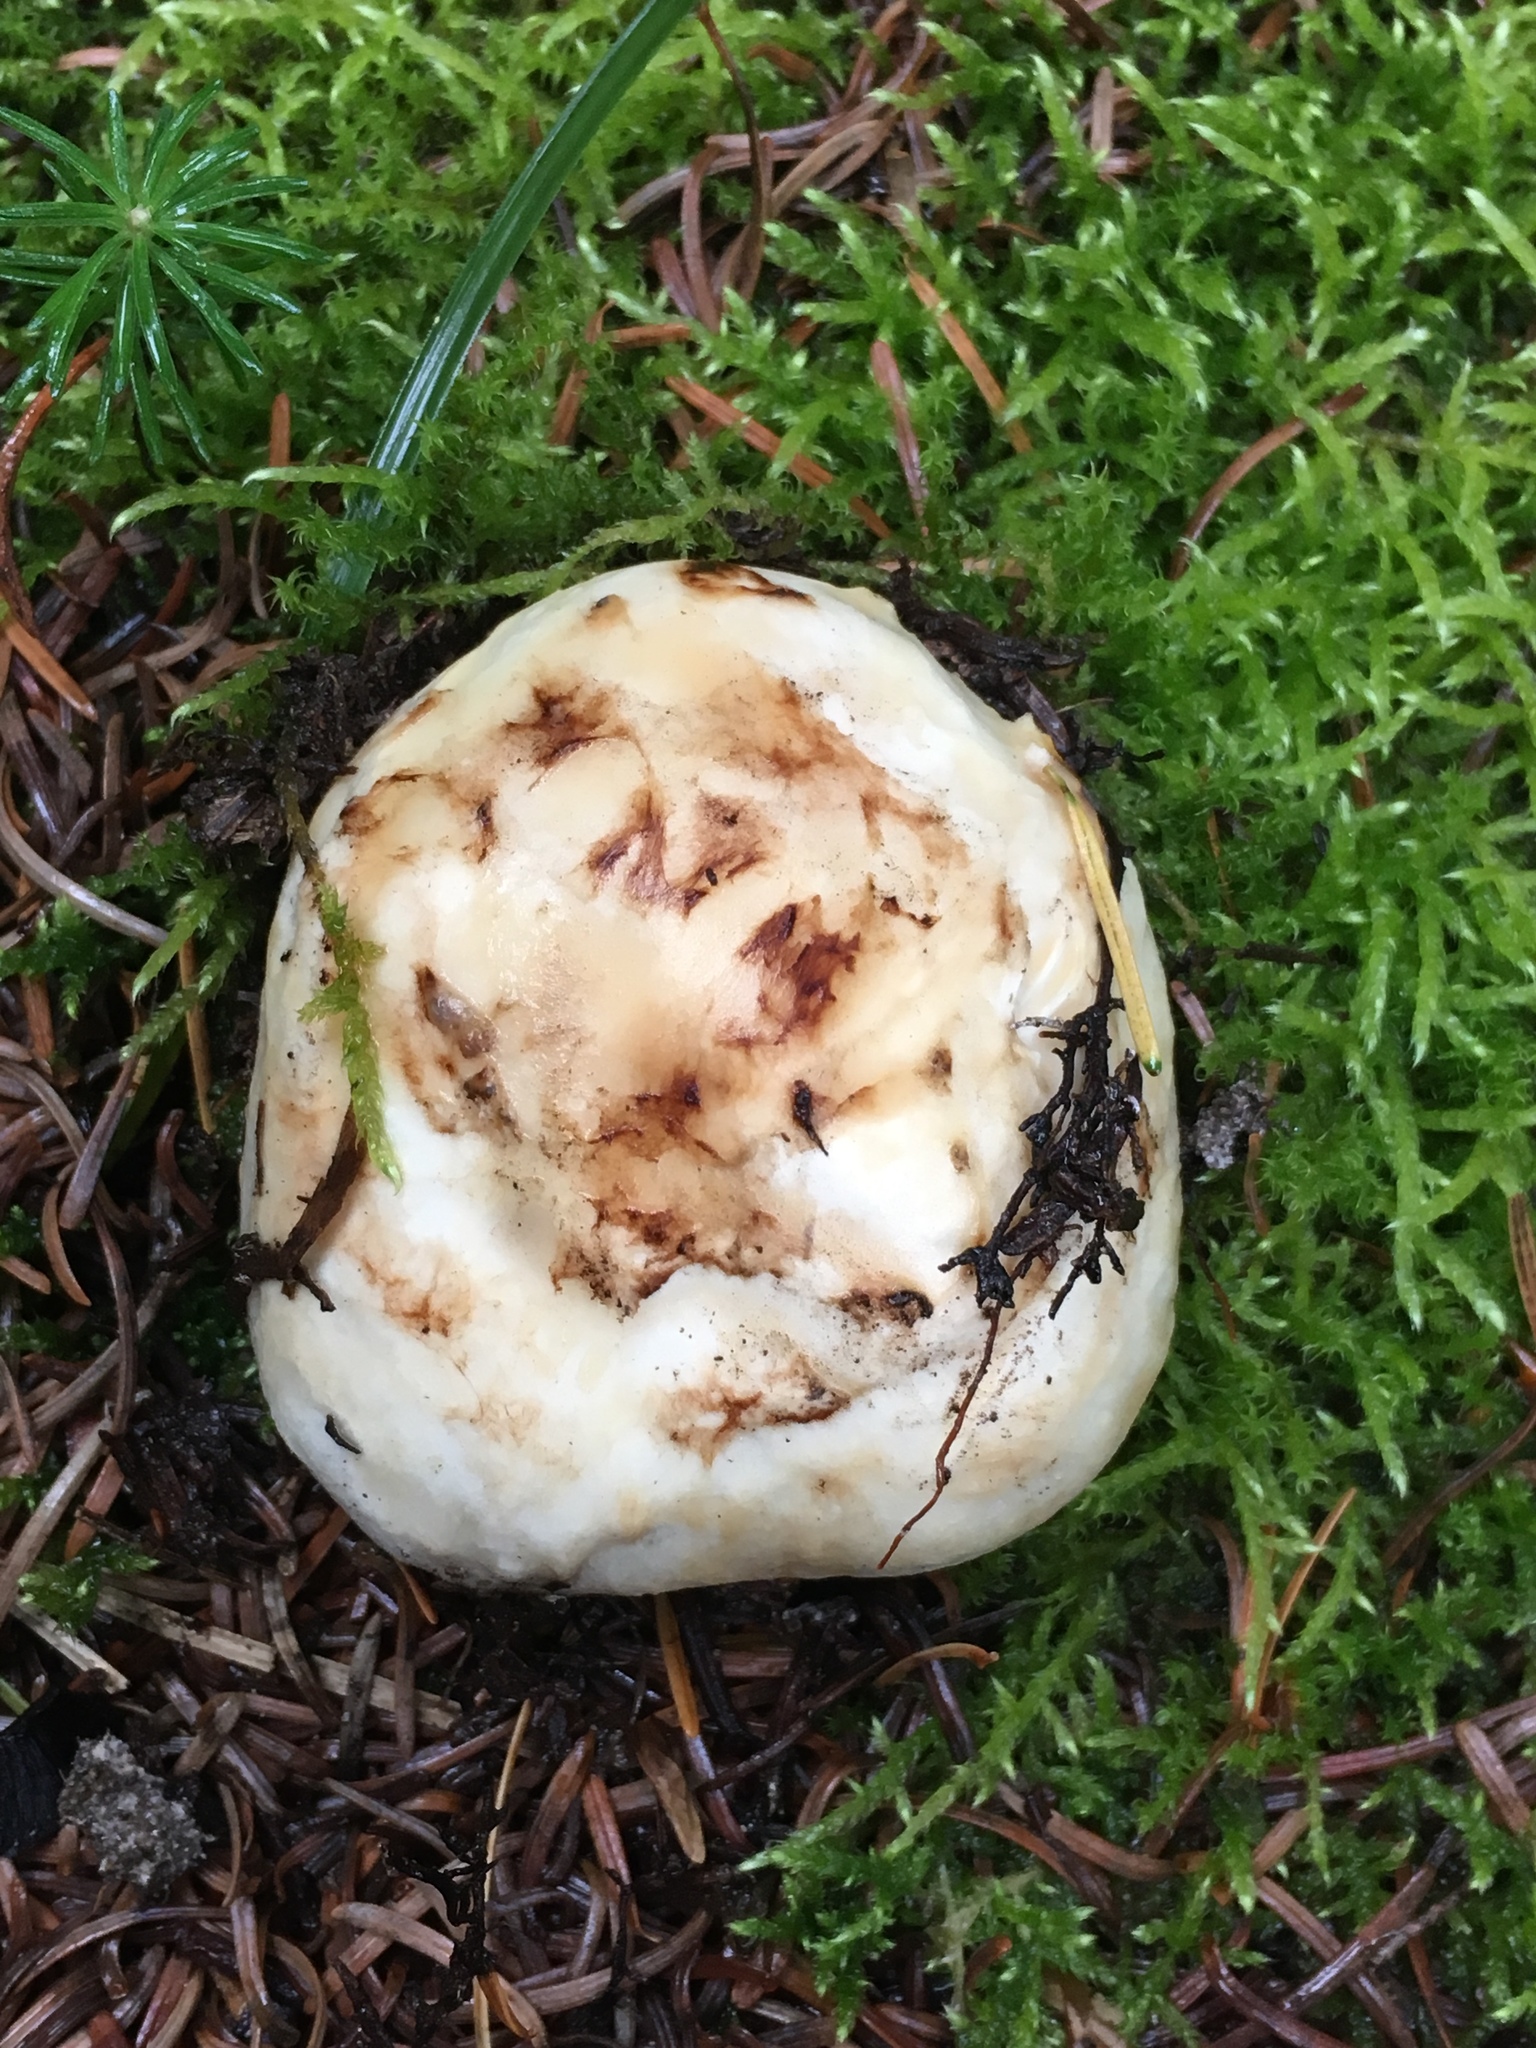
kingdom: Fungi
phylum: Basidiomycota
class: Agaricomycetes
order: Agaricales
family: Tricholomataceae
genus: Tricholoma
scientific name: Tricholoma murrillianum
